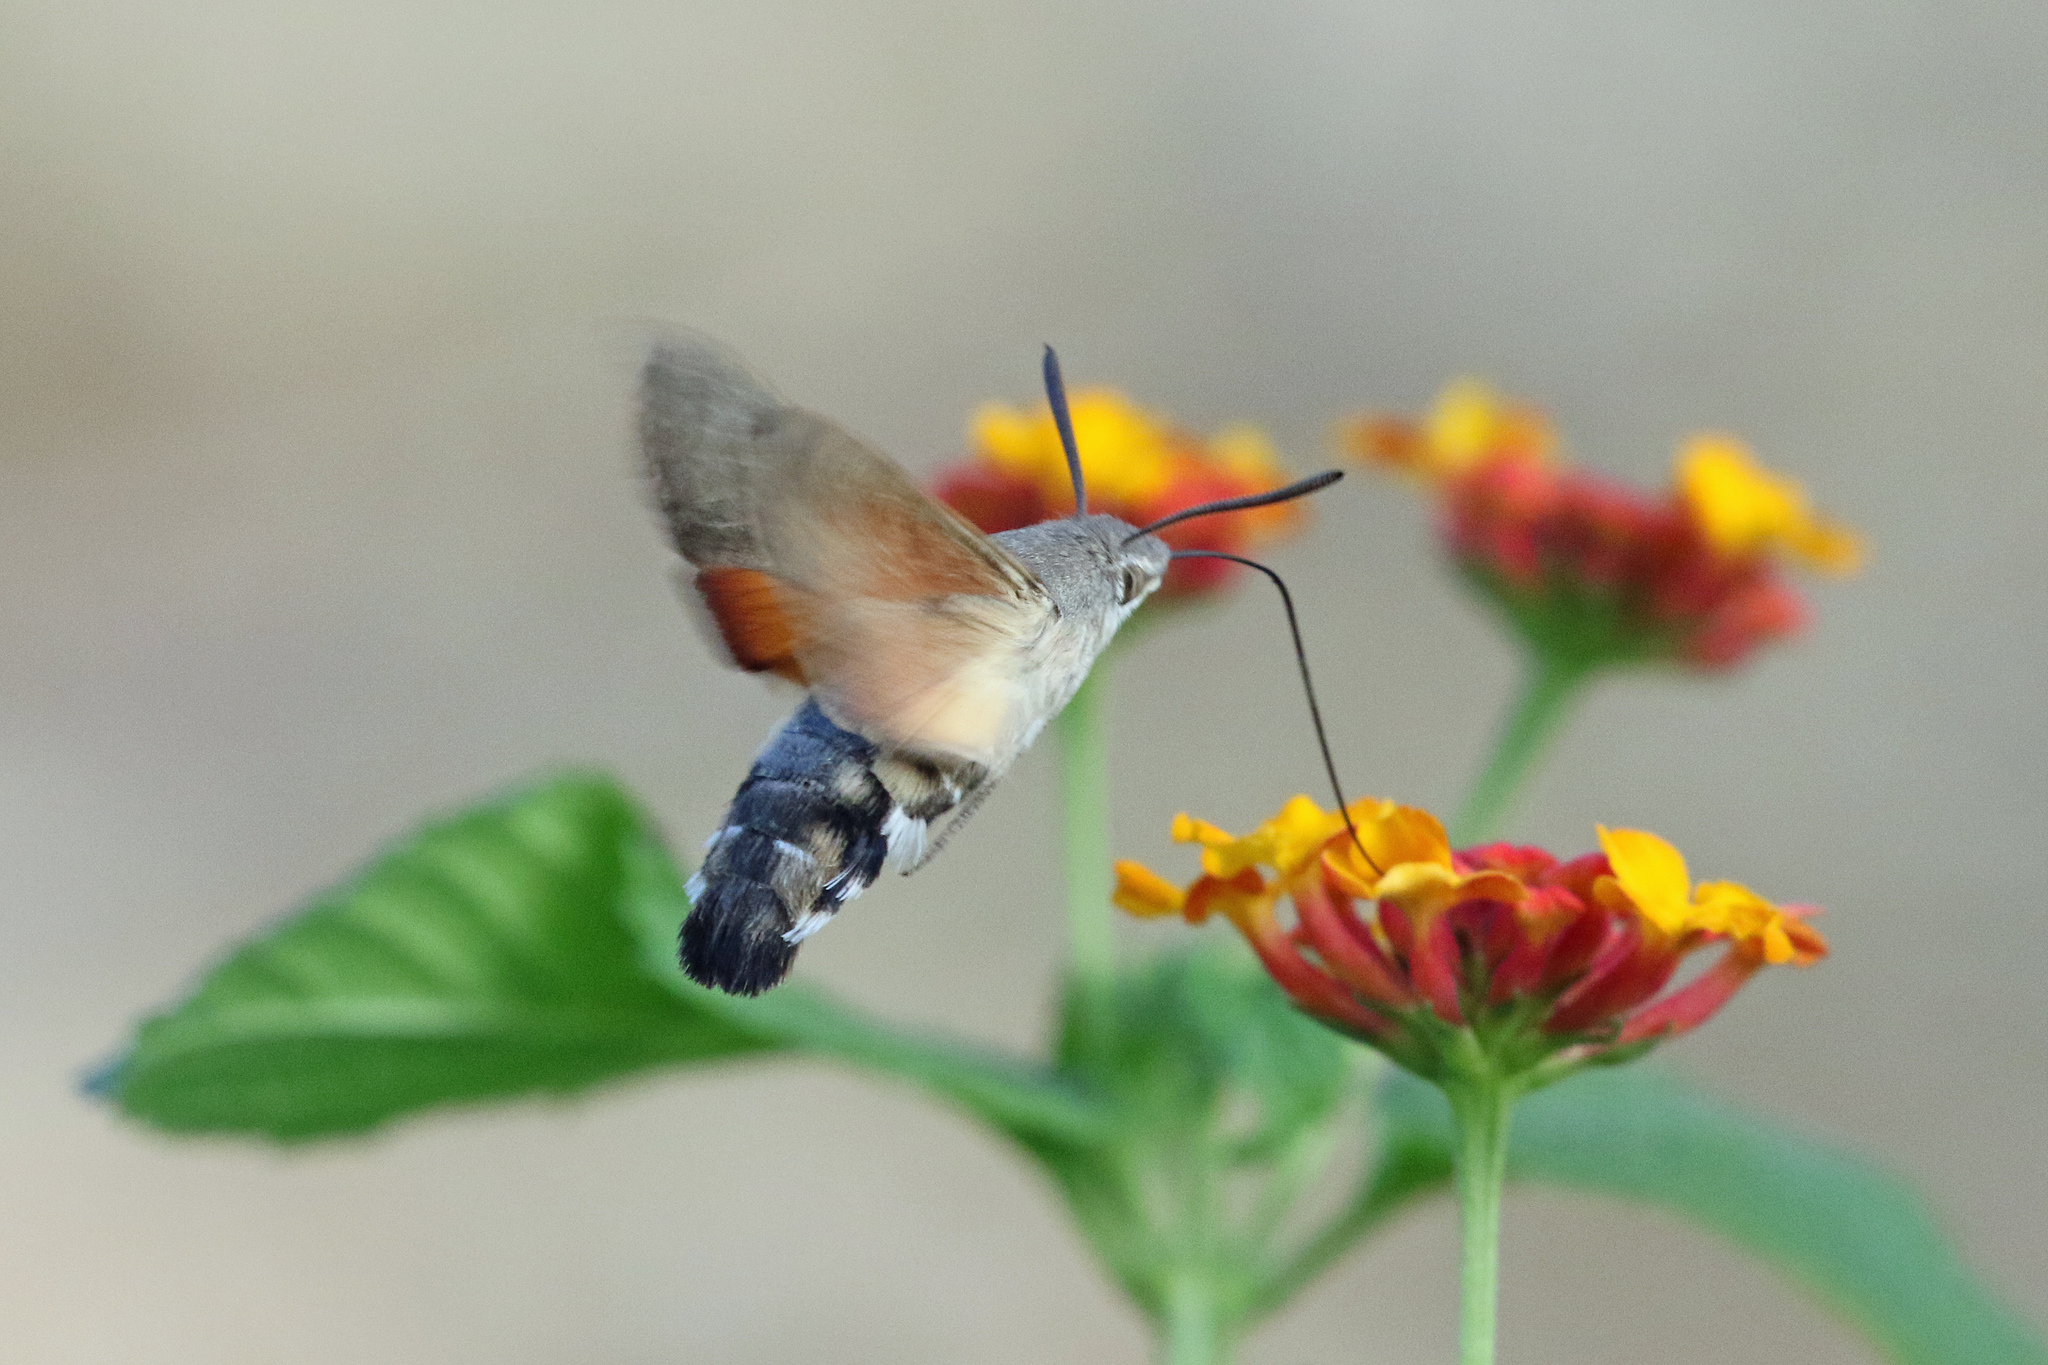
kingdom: Animalia
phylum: Arthropoda
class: Insecta
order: Lepidoptera
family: Sphingidae
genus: Macroglossum
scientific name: Macroglossum stellatarum
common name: Humming-bird hawk-moth
